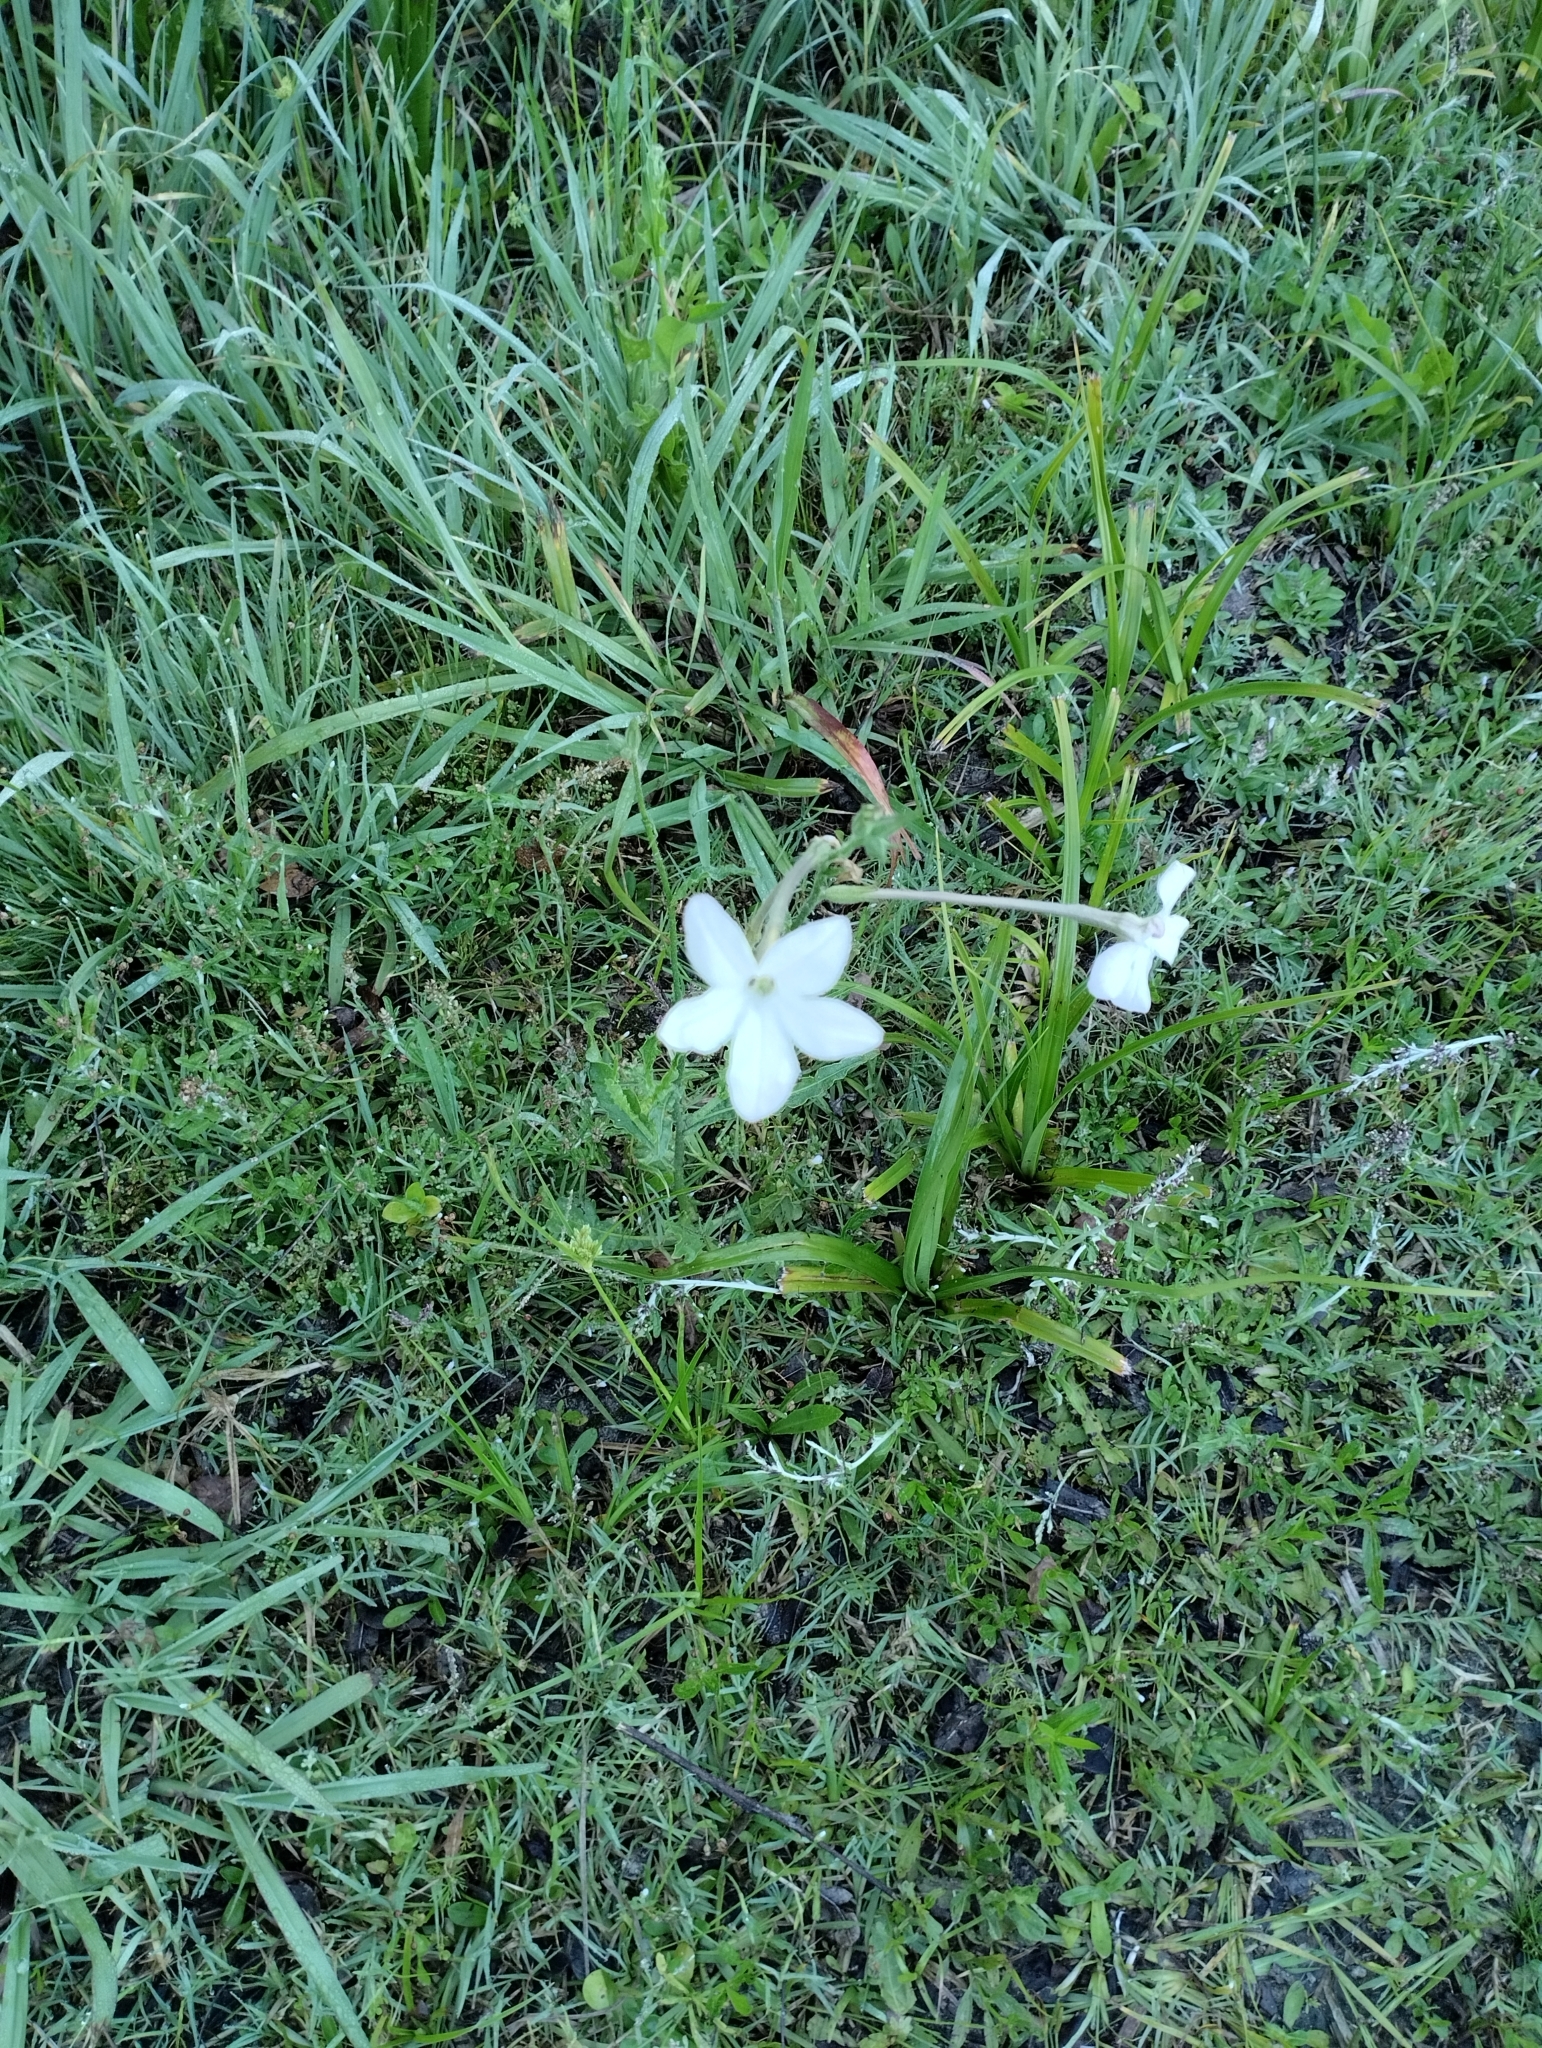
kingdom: Plantae
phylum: Tracheophyta
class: Magnoliopsida
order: Solanales
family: Solanaceae
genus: Nicotiana
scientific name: Nicotiana longiflora
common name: Long-flowered tobacco
